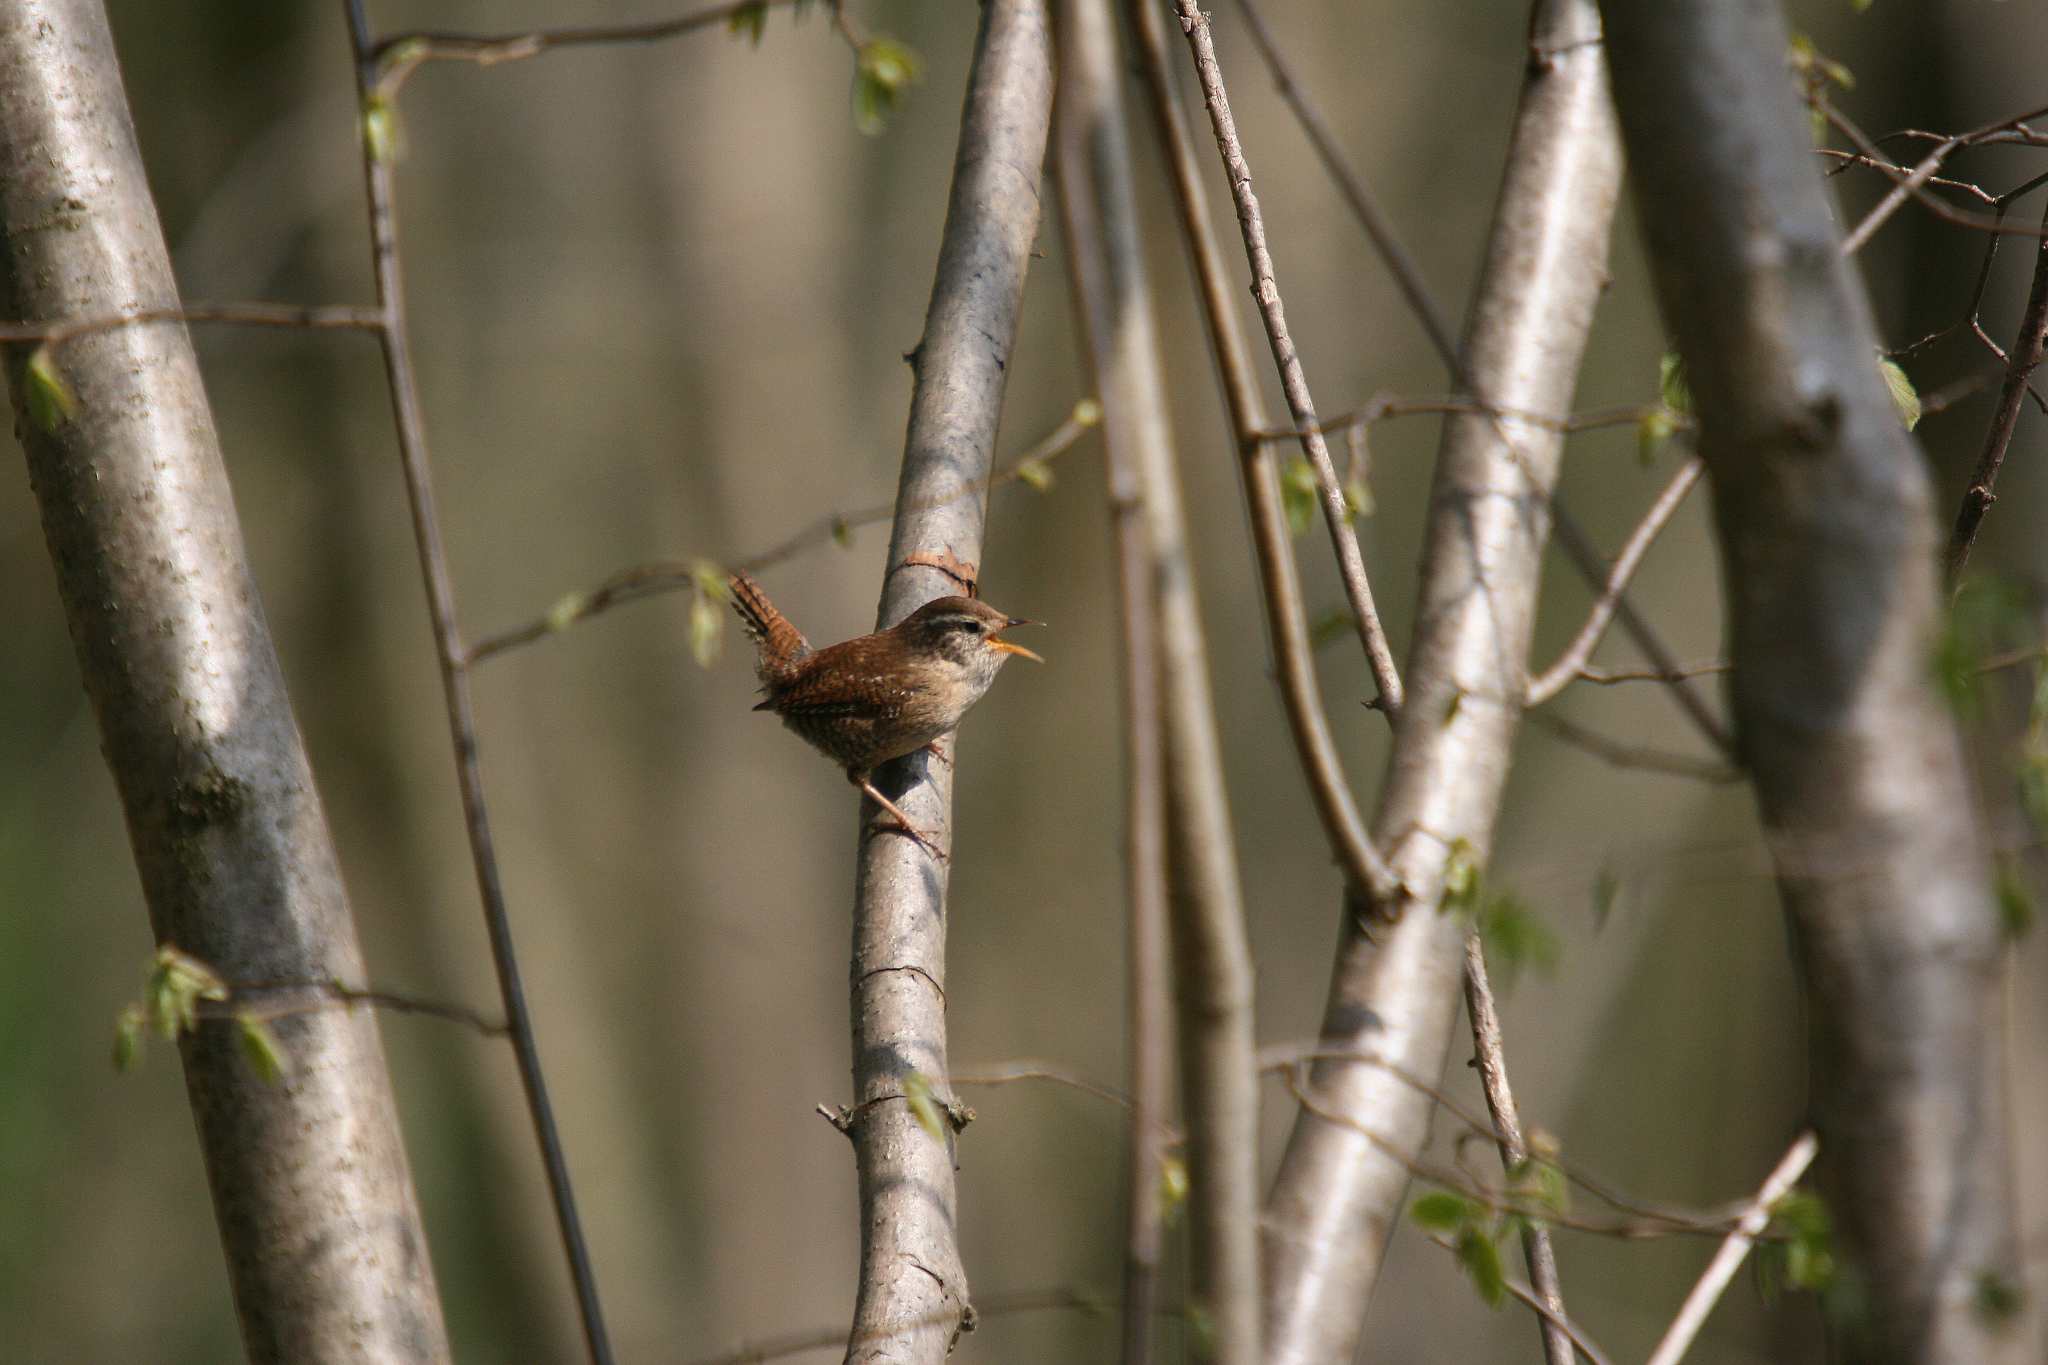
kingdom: Animalia
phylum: Chordata
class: Aves
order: Passeriformes
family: Troglodytidae
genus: Troglodytes
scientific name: Troglodytes troglodytes
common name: Eurasian wren
